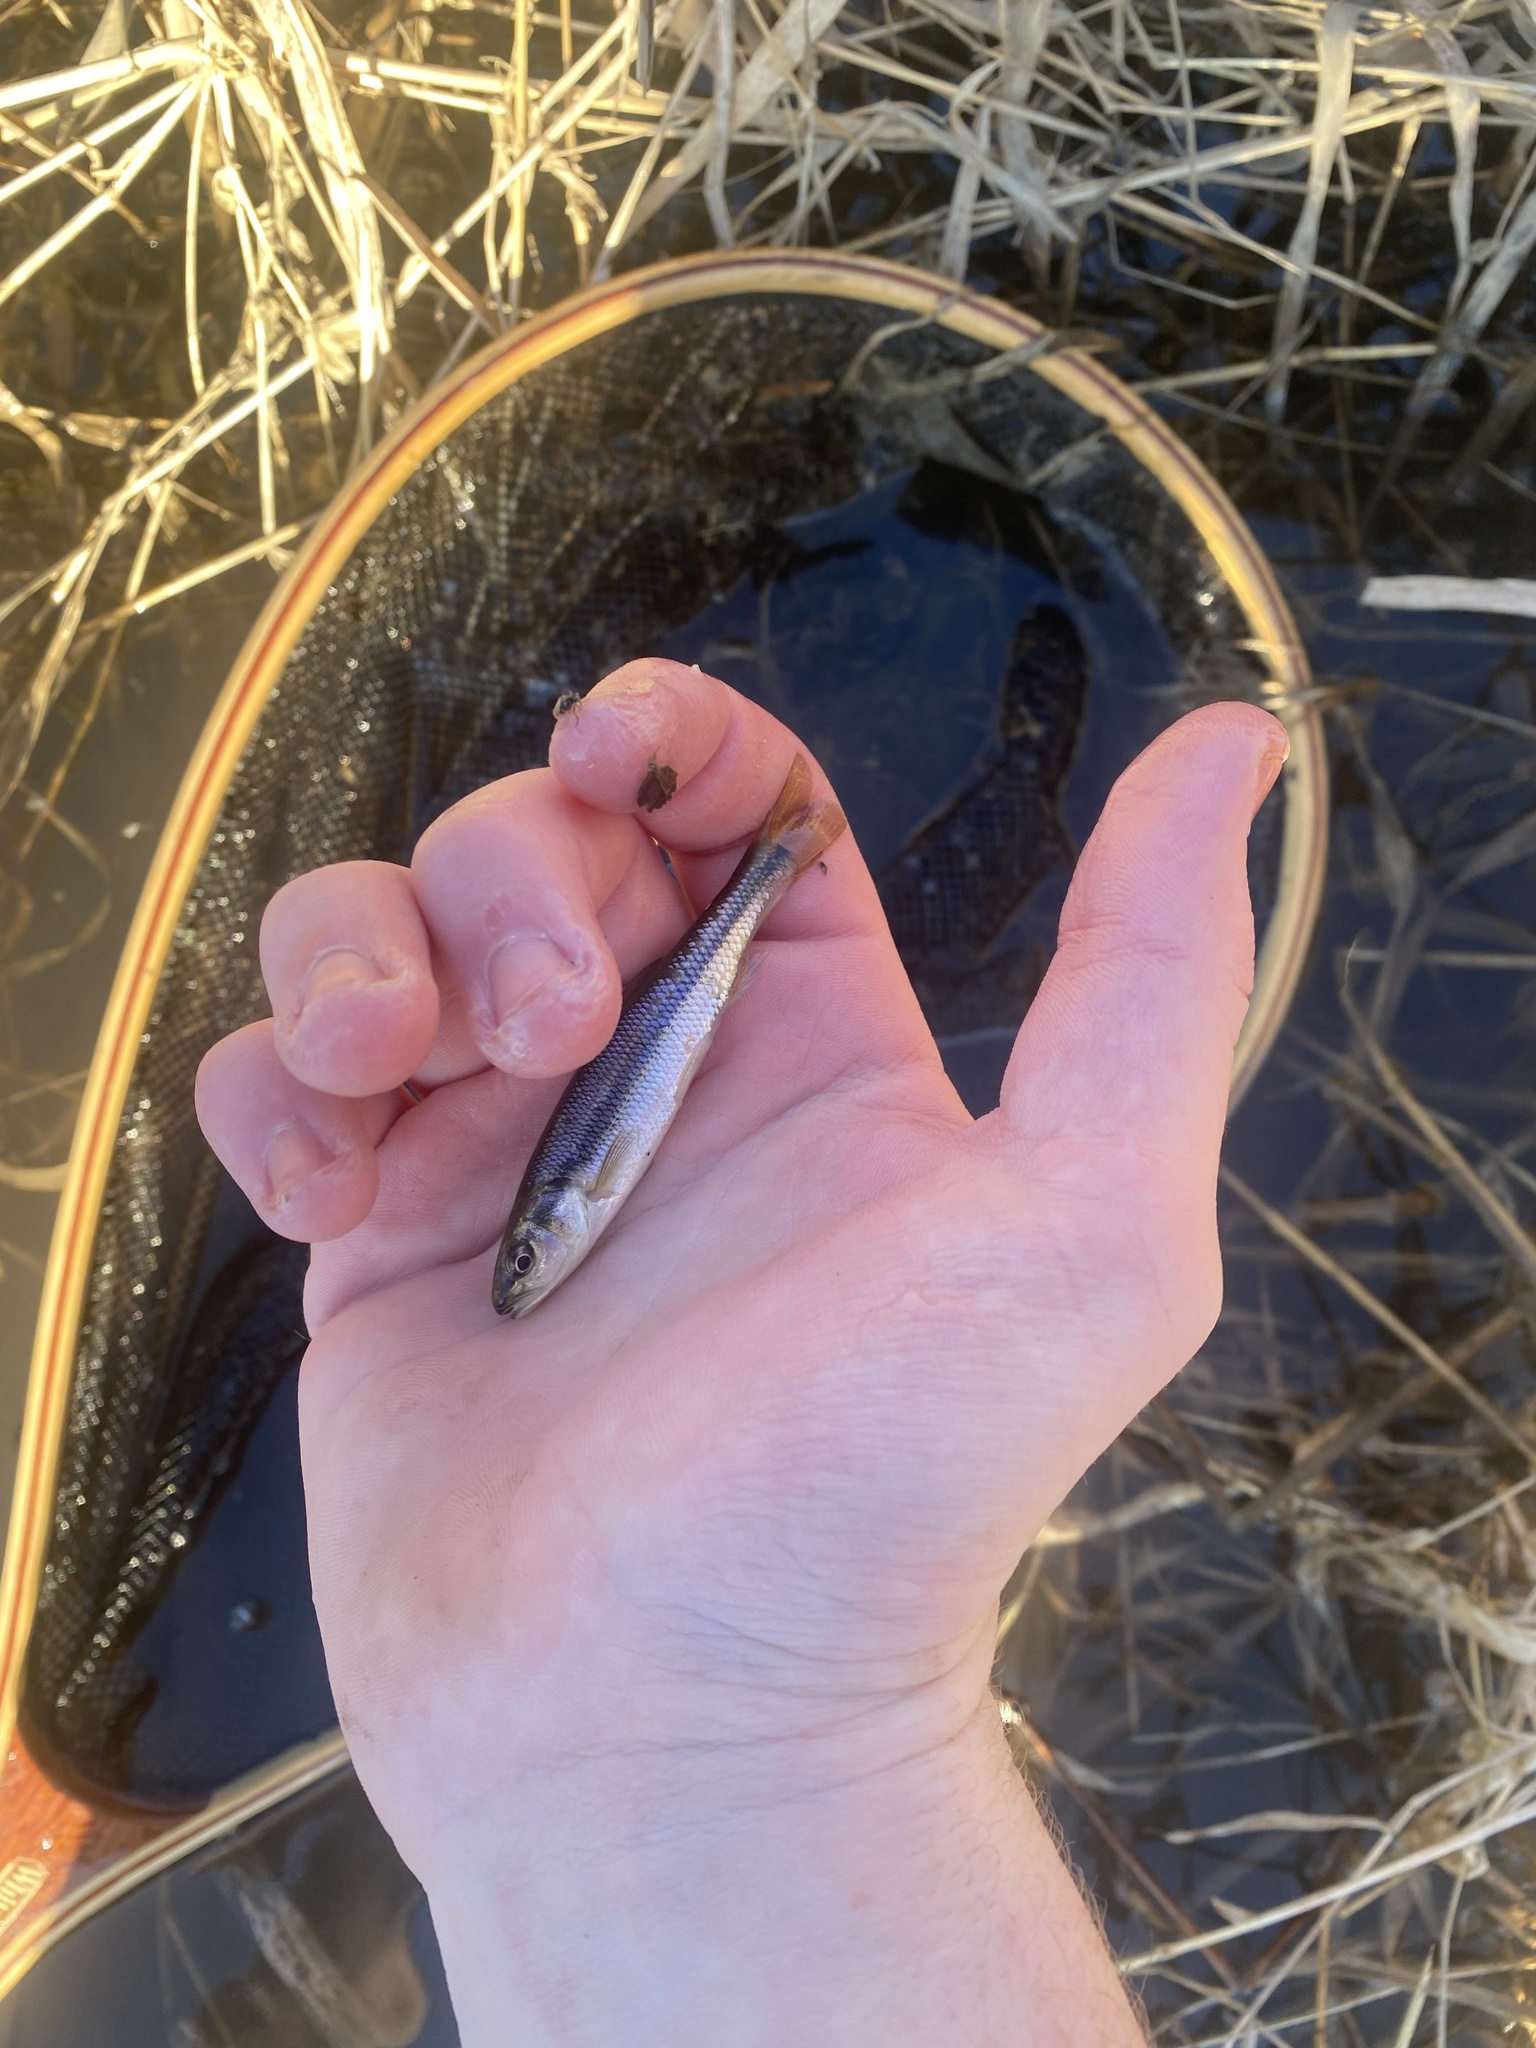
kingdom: Animalia
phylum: Chordata
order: Cypriniformes
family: Cyprinidae
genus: Semotilus
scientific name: Semotilus atromaculatus
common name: Creek chub
